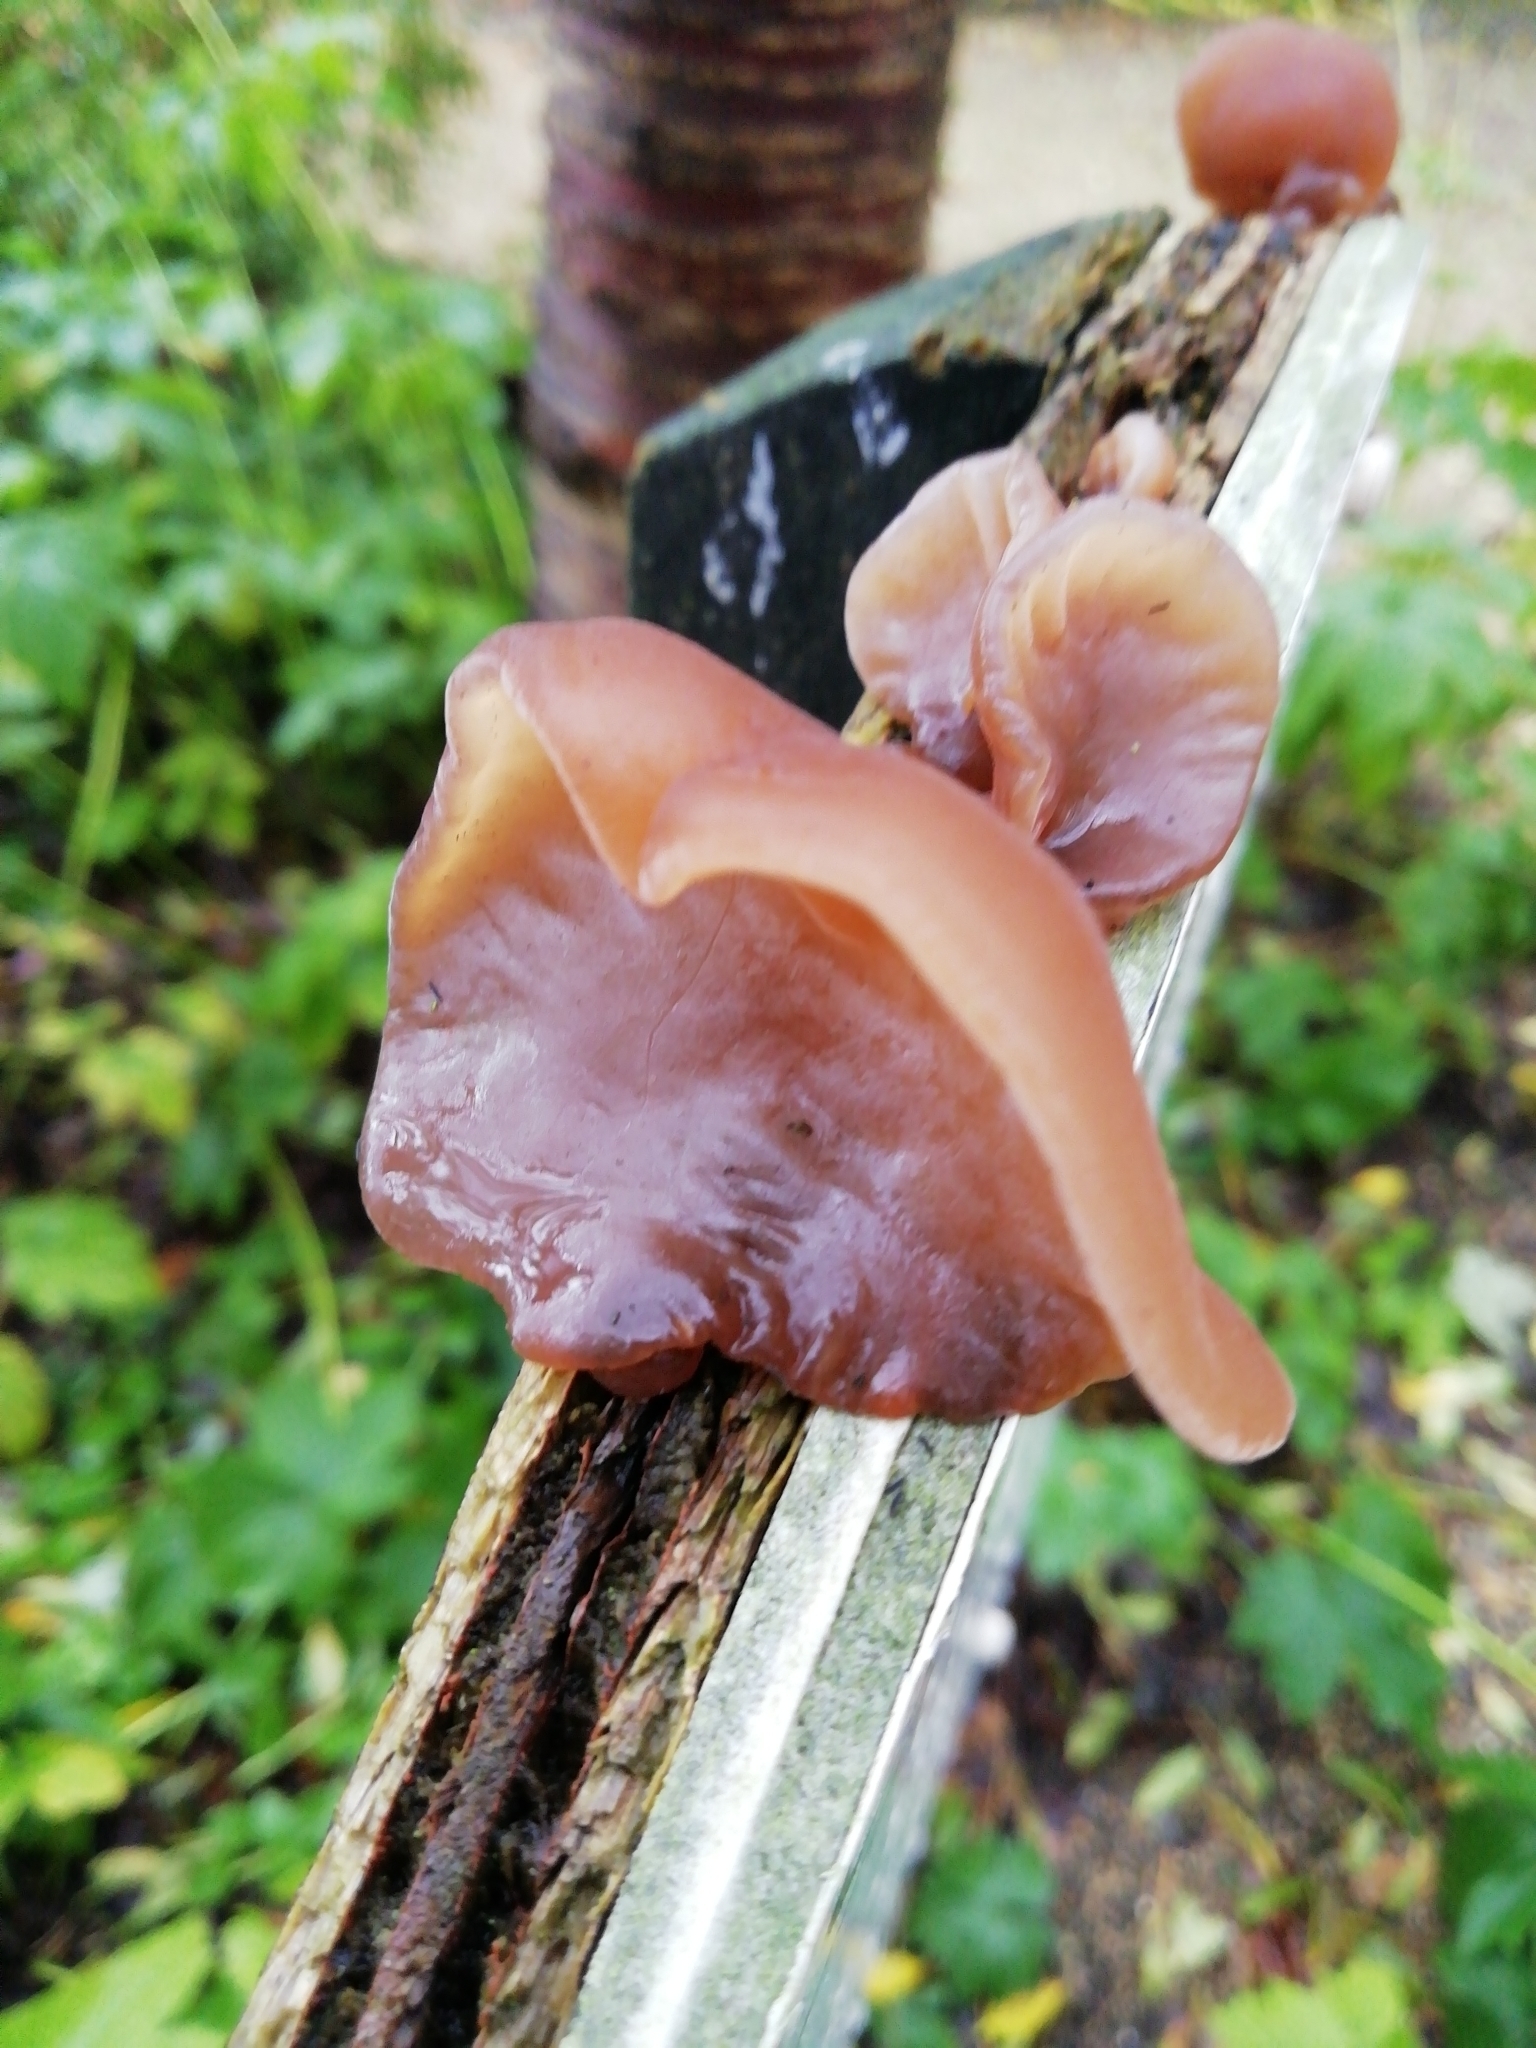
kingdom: Fungi
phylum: Basidiomycota
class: Agaricomycetes
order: Auriculariales
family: Auriculariaceae
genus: Auricularia
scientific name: Auricularia auricula-judae
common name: Jelly ear
